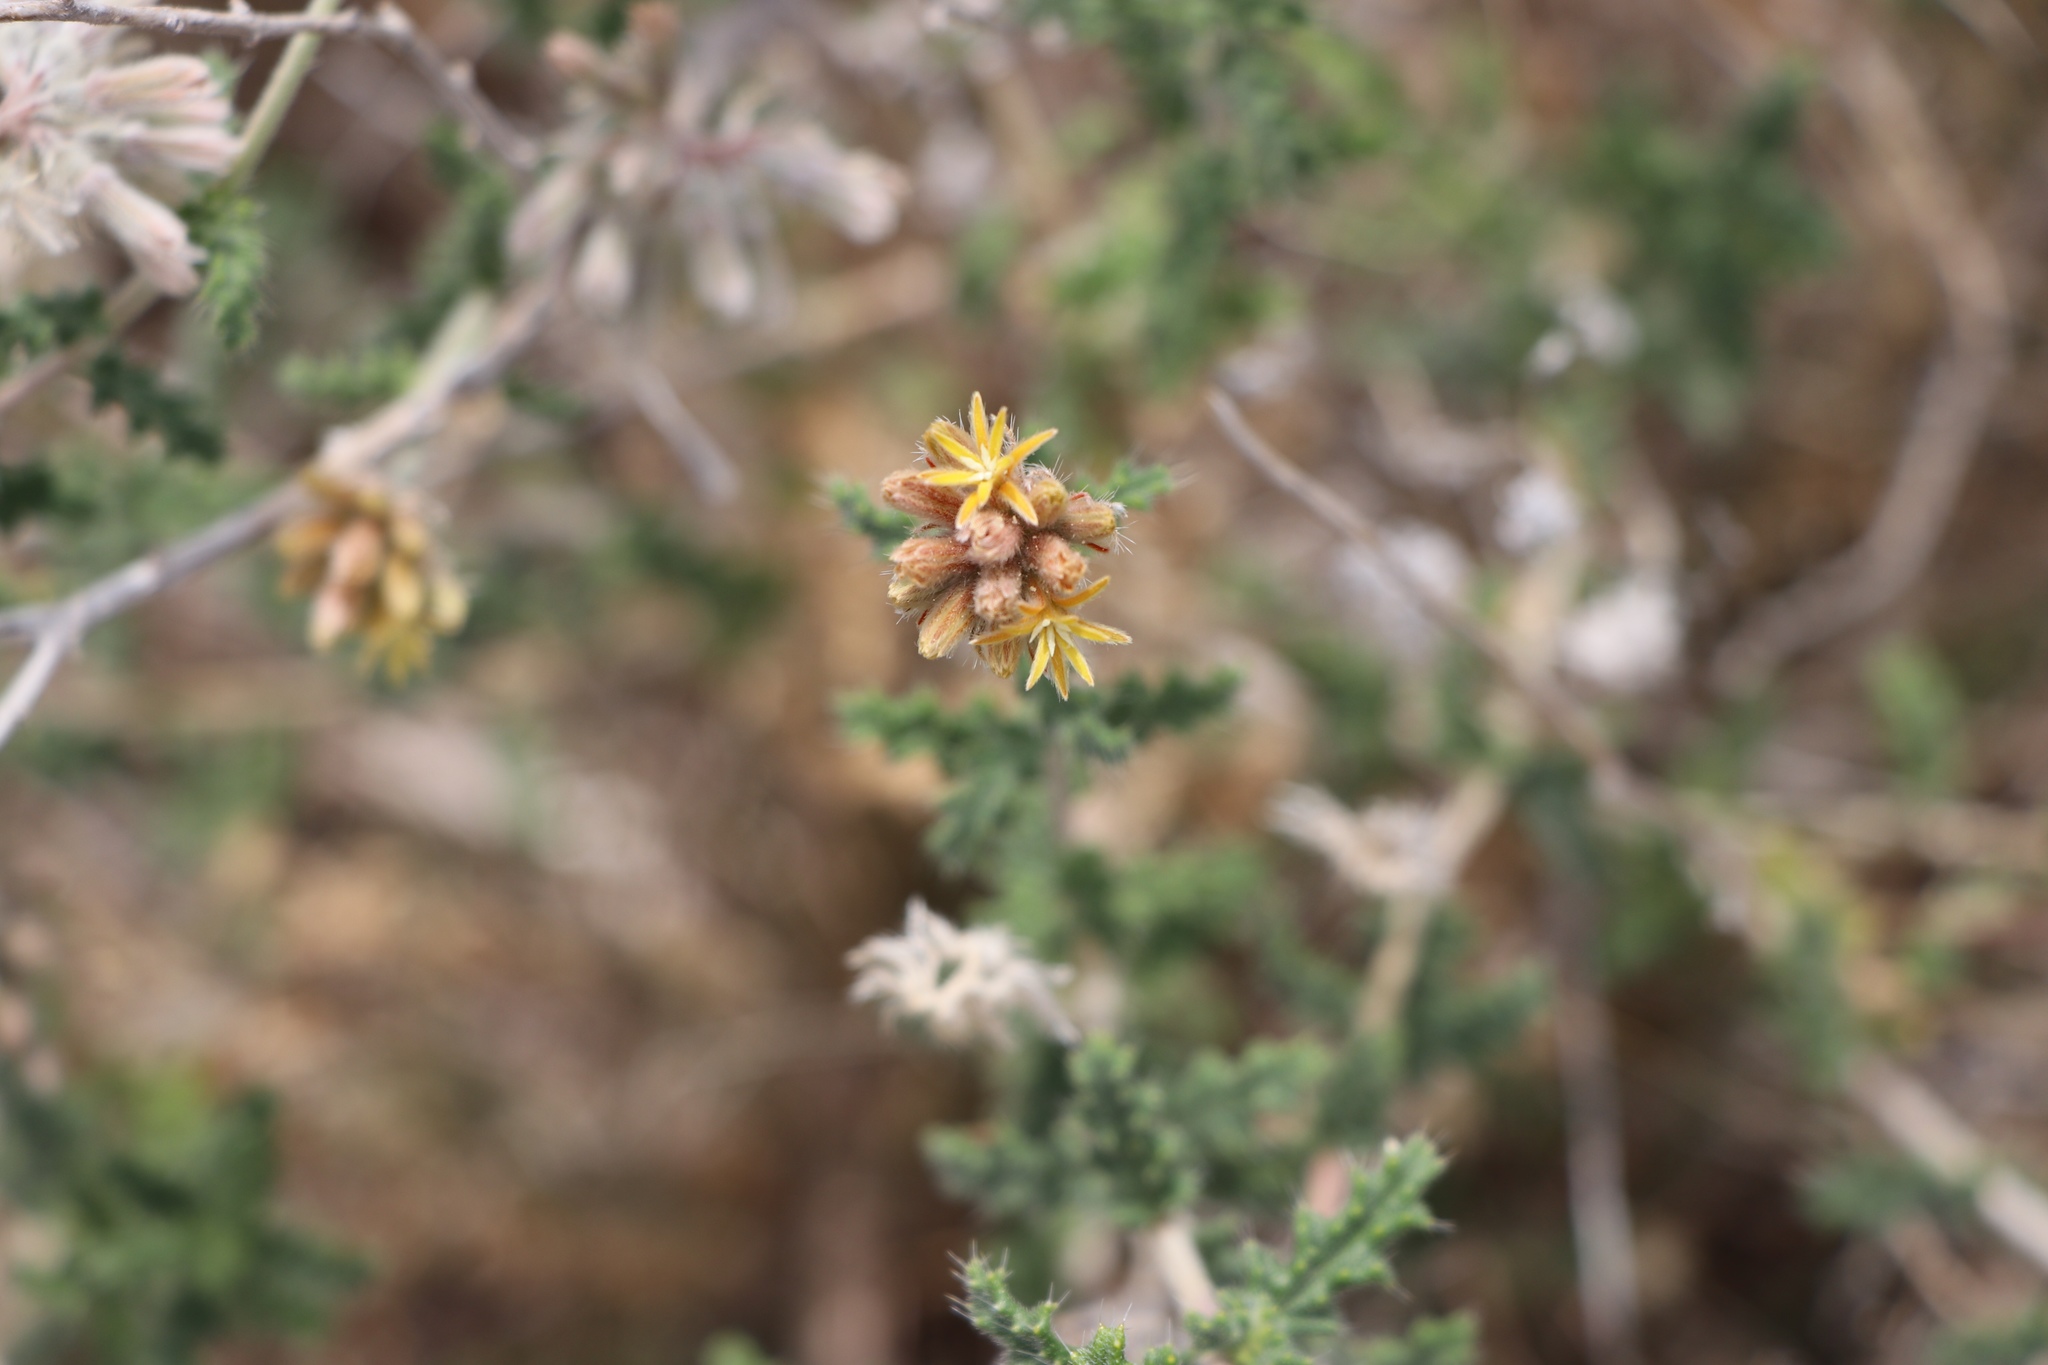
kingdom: Plantae
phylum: Tracheophyta
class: Magnoliopsida
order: Cornales
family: Loasaceae
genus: Cevallia
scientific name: Cevallia sinuata
